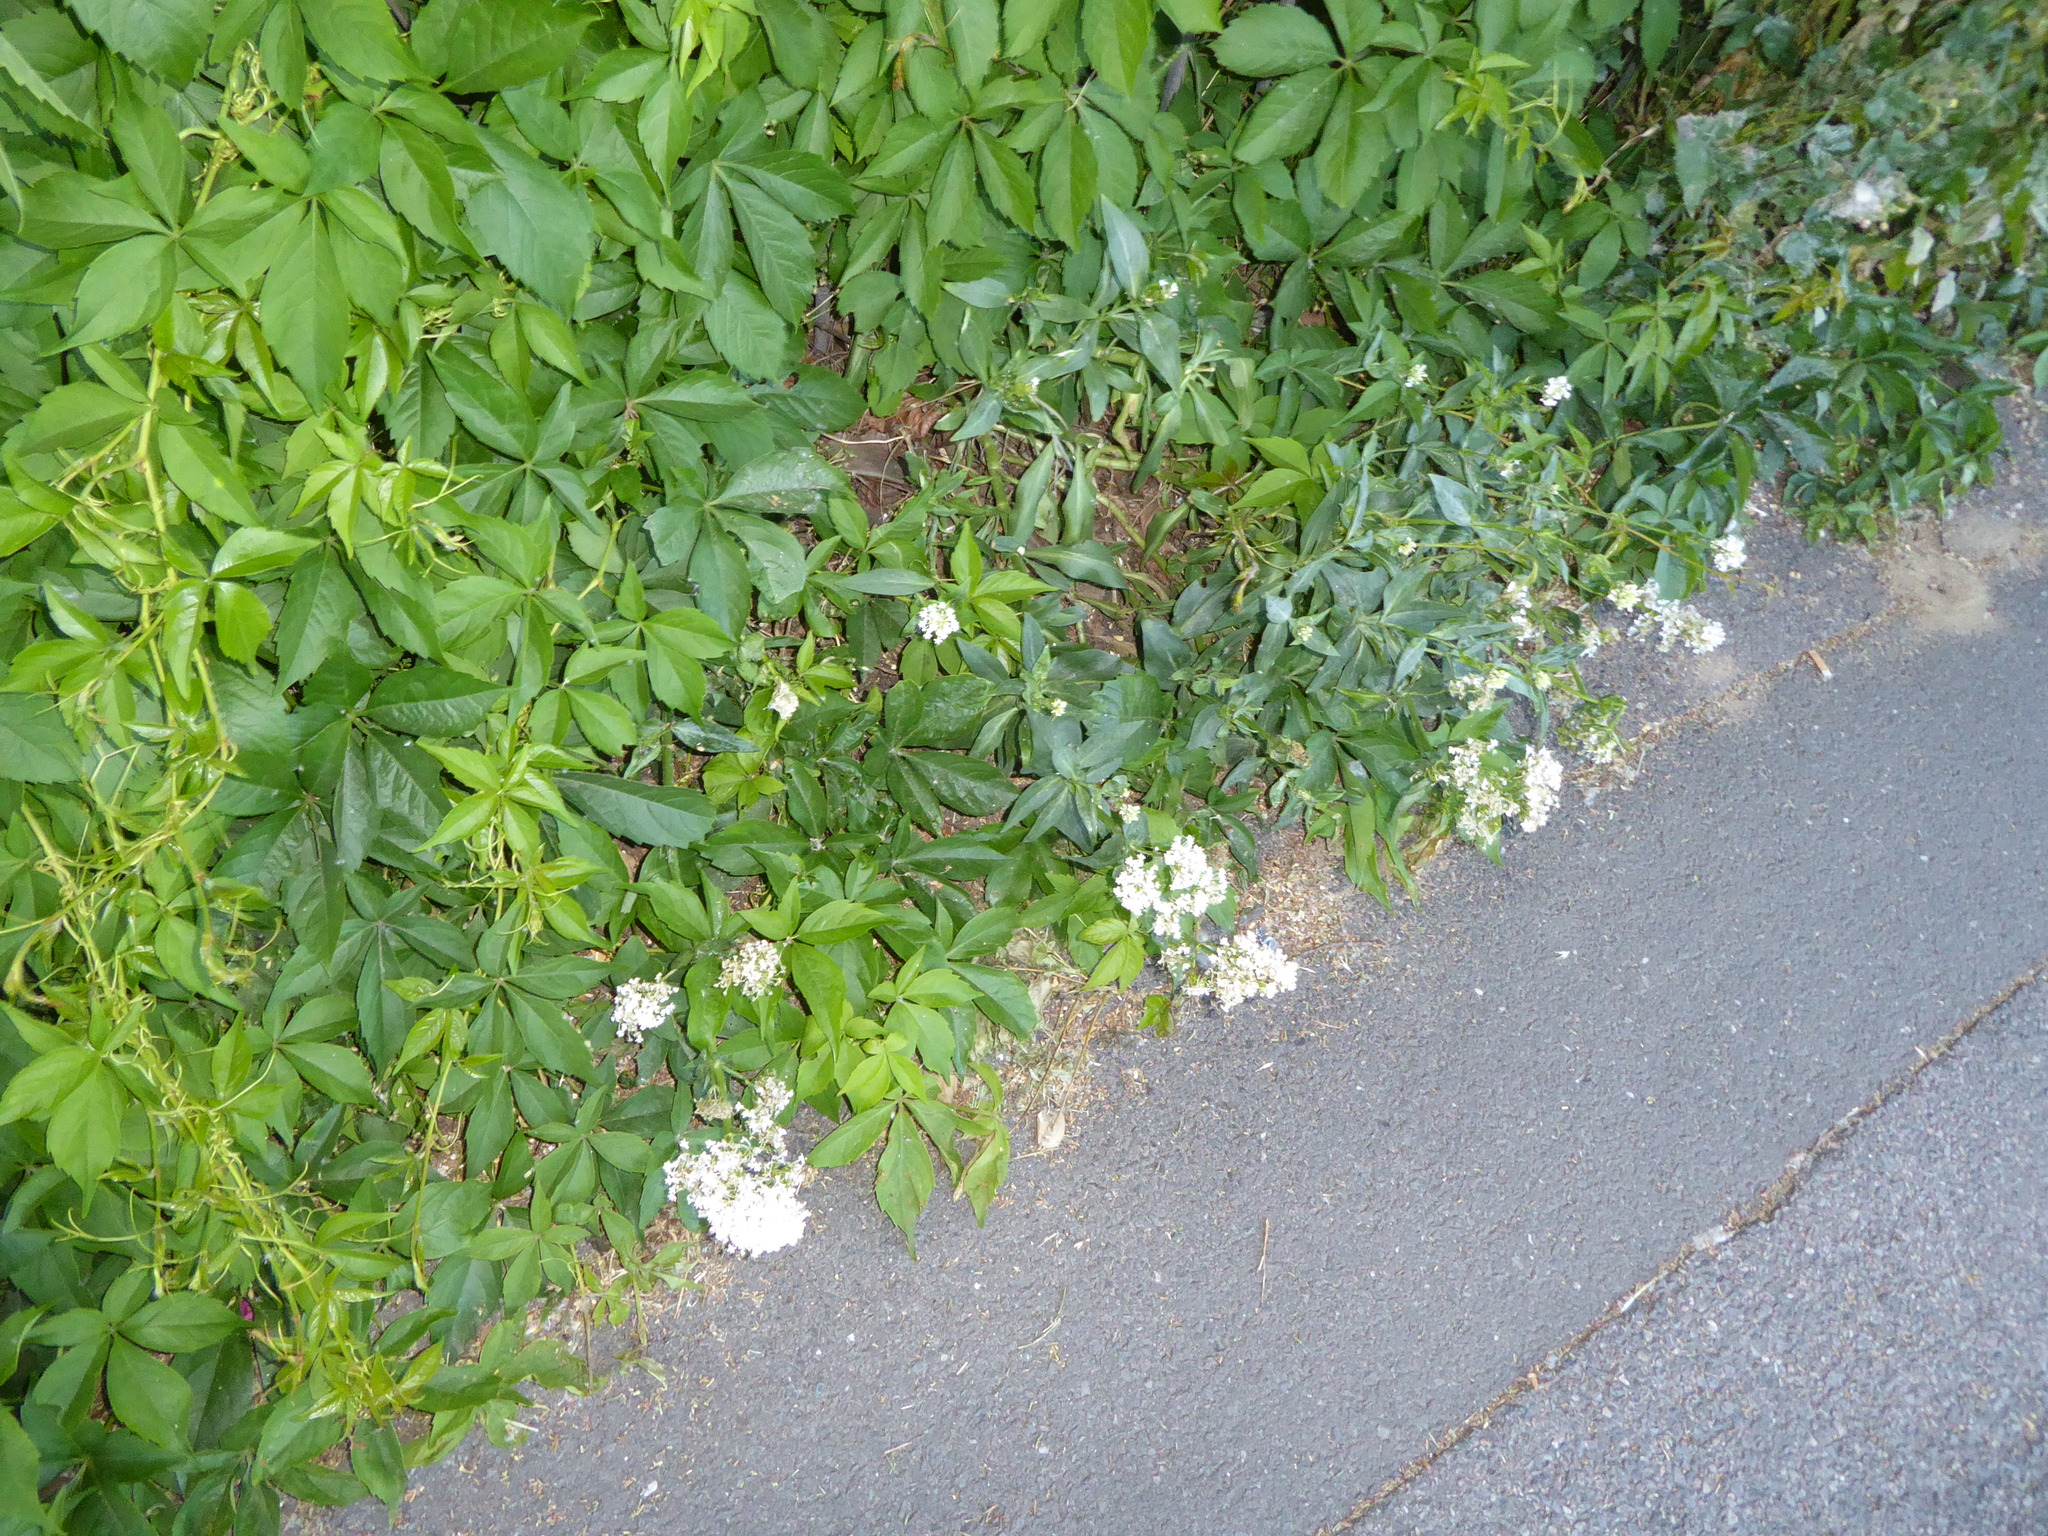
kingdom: Plantae
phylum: Tracheophyta
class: Magnoliopsida
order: Dipsacales
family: Caprifoliaceae
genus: Centranthus
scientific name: Centranthus ruber
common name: Red valerian
